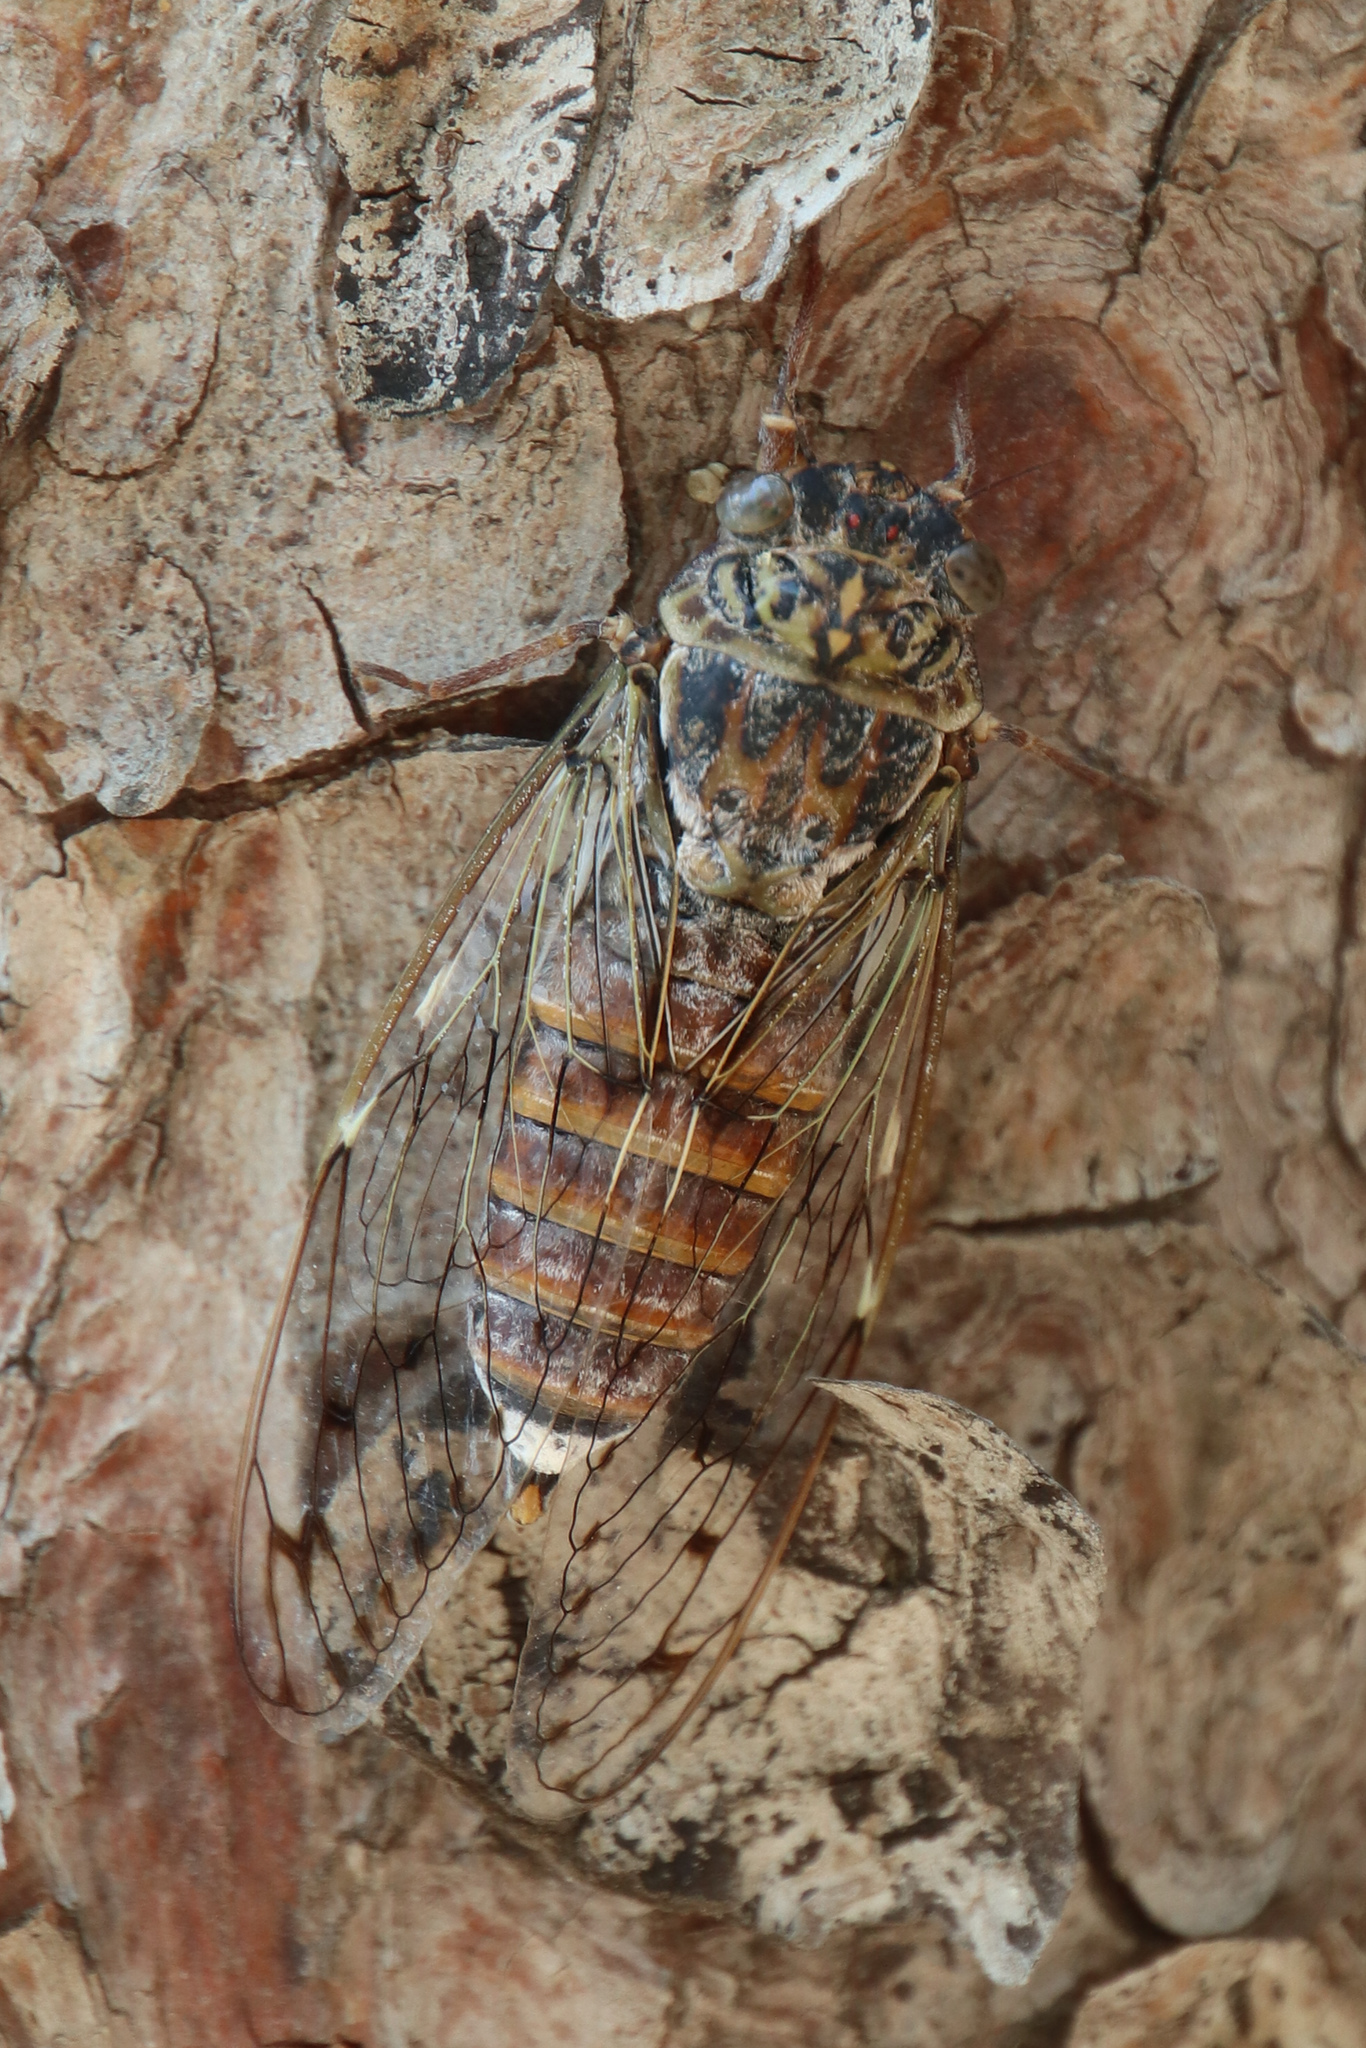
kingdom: Animalia
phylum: Arthropoda
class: Insecta
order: Hemiptera
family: Cicadidae
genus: Cicada
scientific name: Cicada orni
